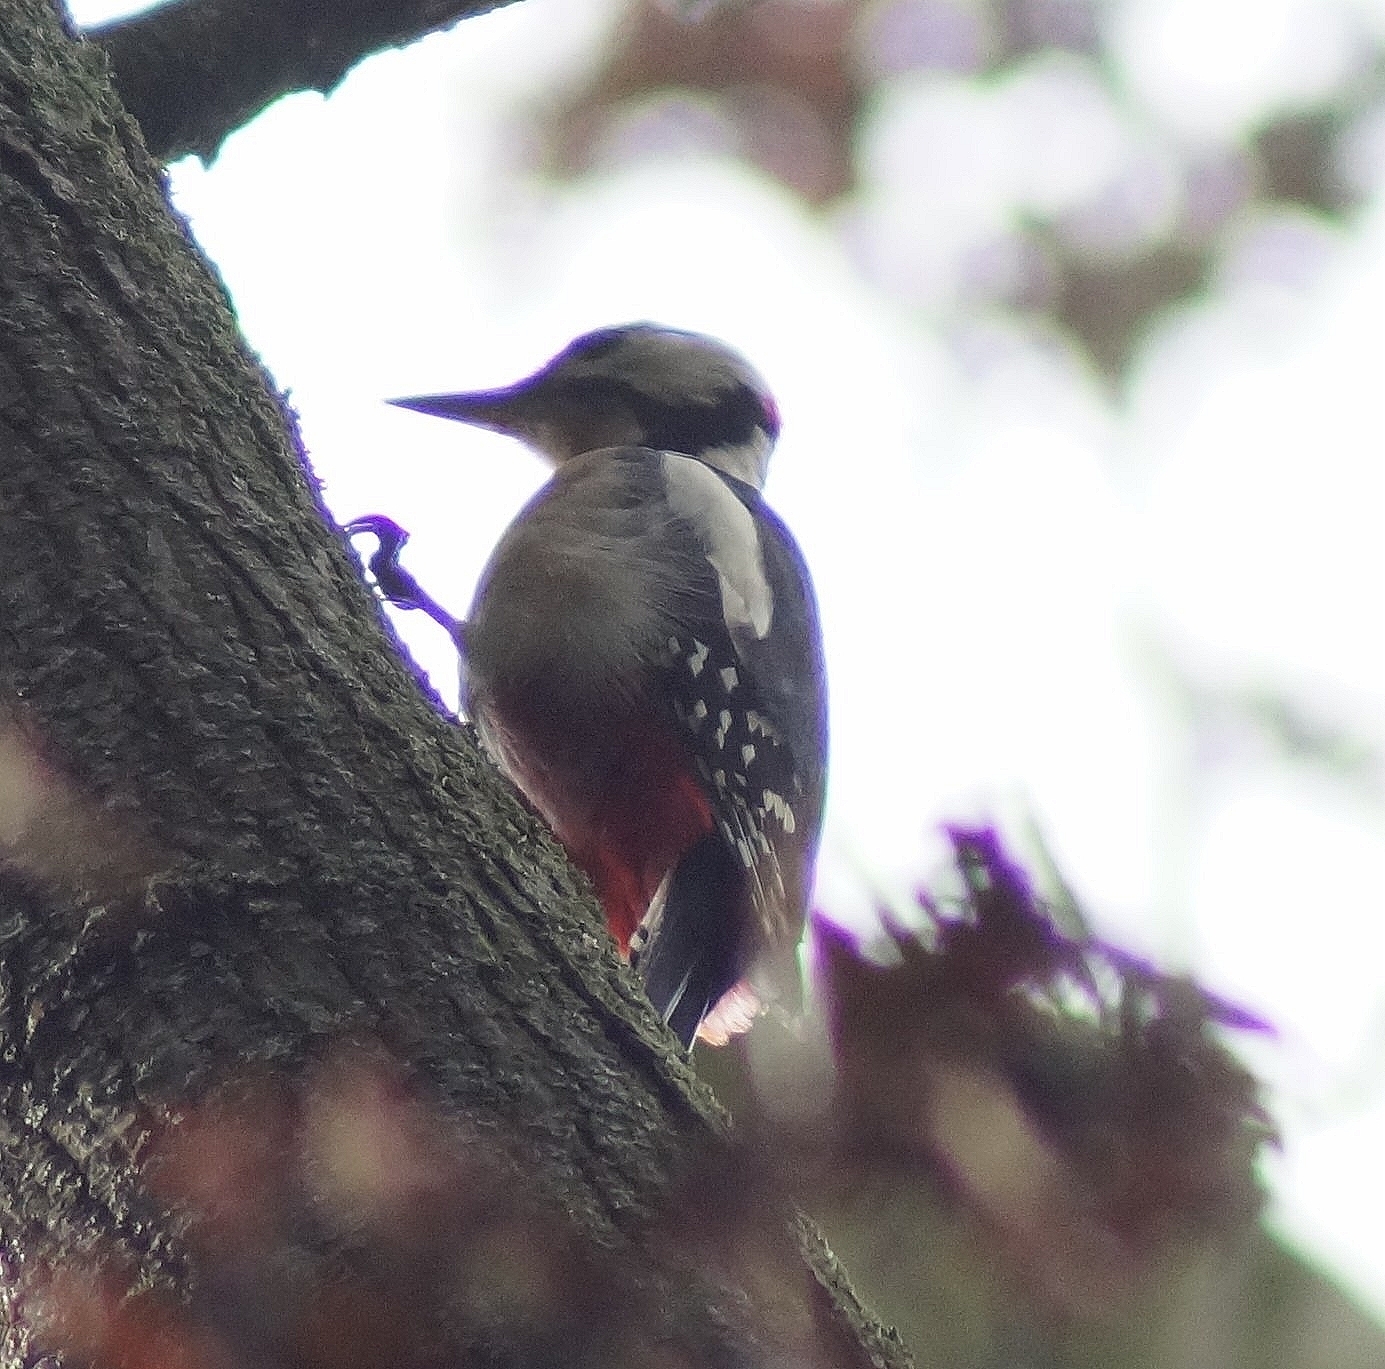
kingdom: Animalia
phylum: Chordata
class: Aves
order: Piciformes
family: Picidae
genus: Dendrocopos
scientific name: Dendrocopos major
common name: Great spotted woodpecker
